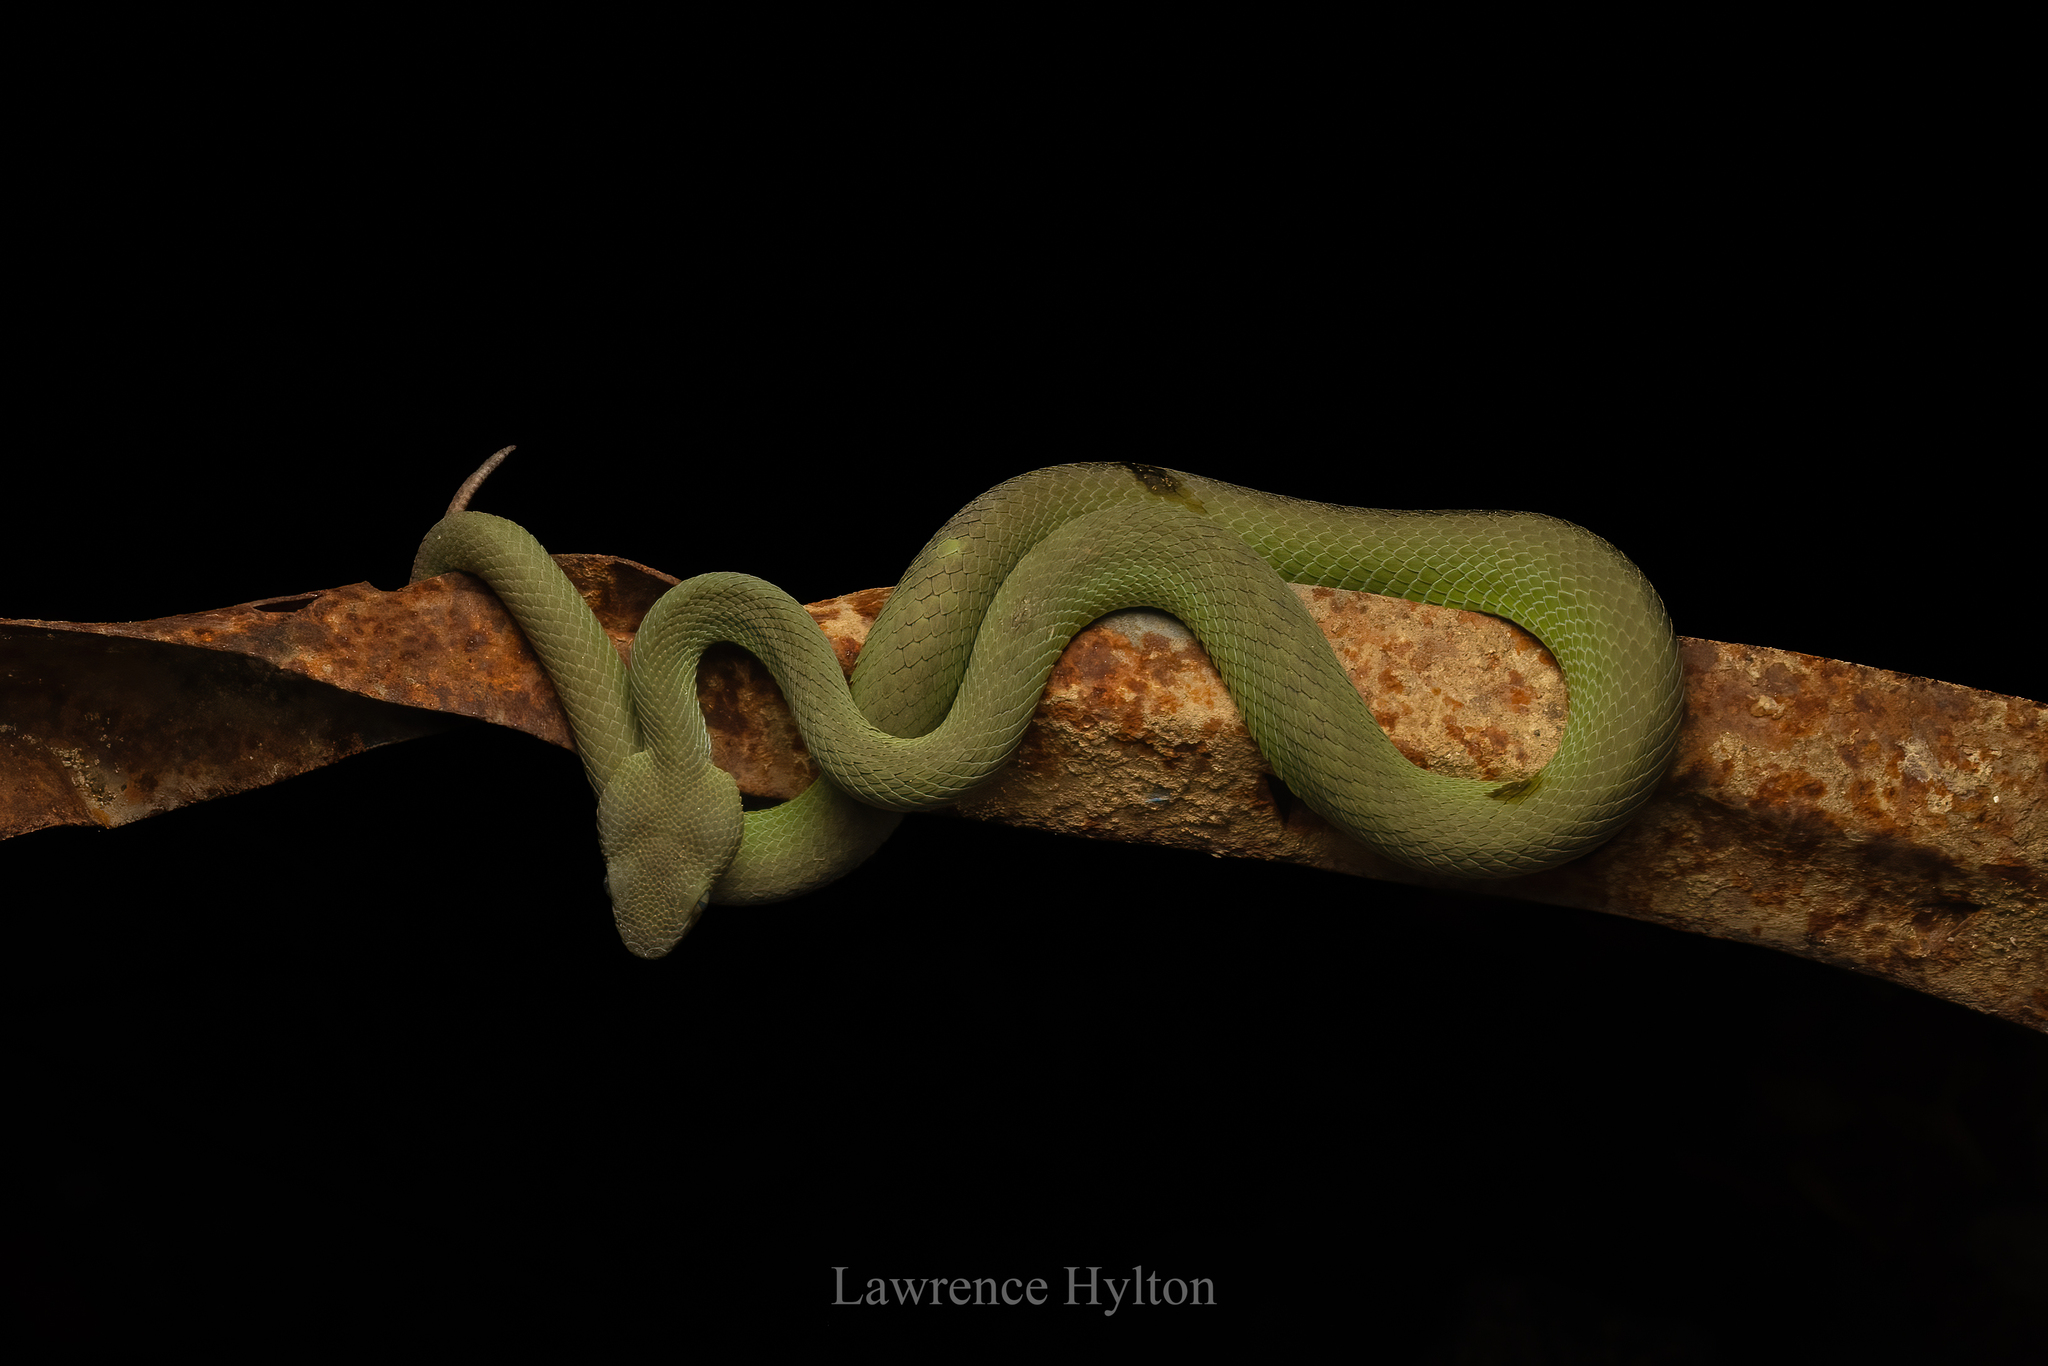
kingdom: Animalia
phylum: Chordata
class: Squamata
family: Viperidae
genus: Trimeresurus
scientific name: Trimeresurus macrops
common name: Kramer's pit viper
